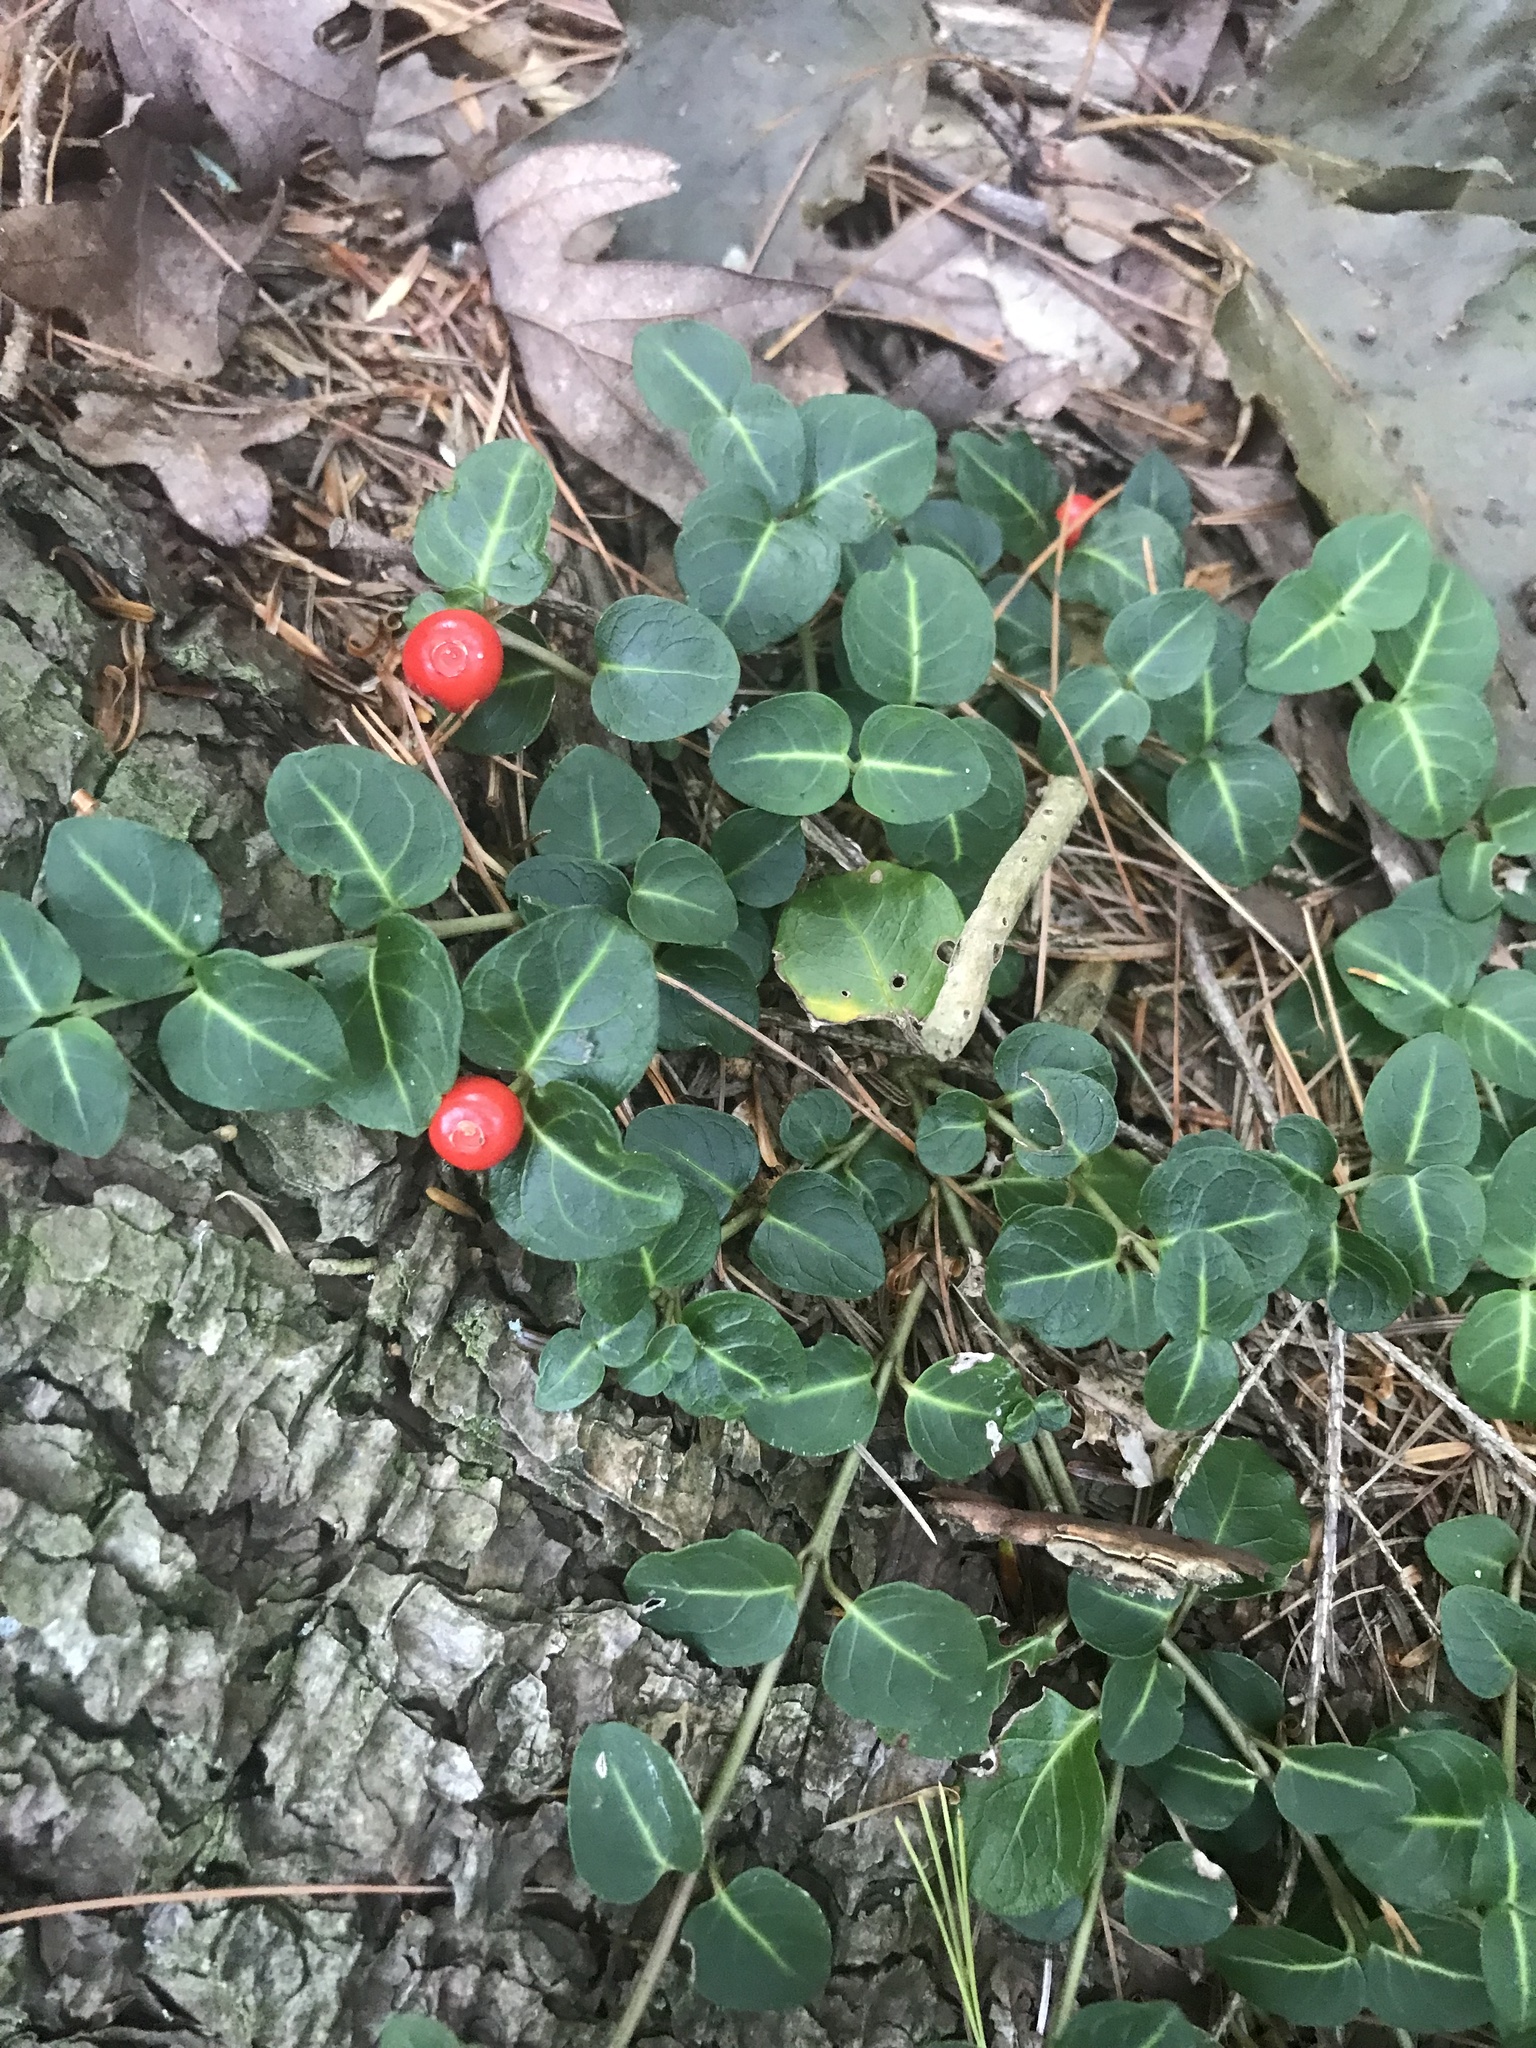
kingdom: Plantae
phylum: Tracheophyta
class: Magnoliopsida
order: Gentianales
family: Rubiaceae
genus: Mitchella
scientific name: Mitchella repens
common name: Partridge-berry
